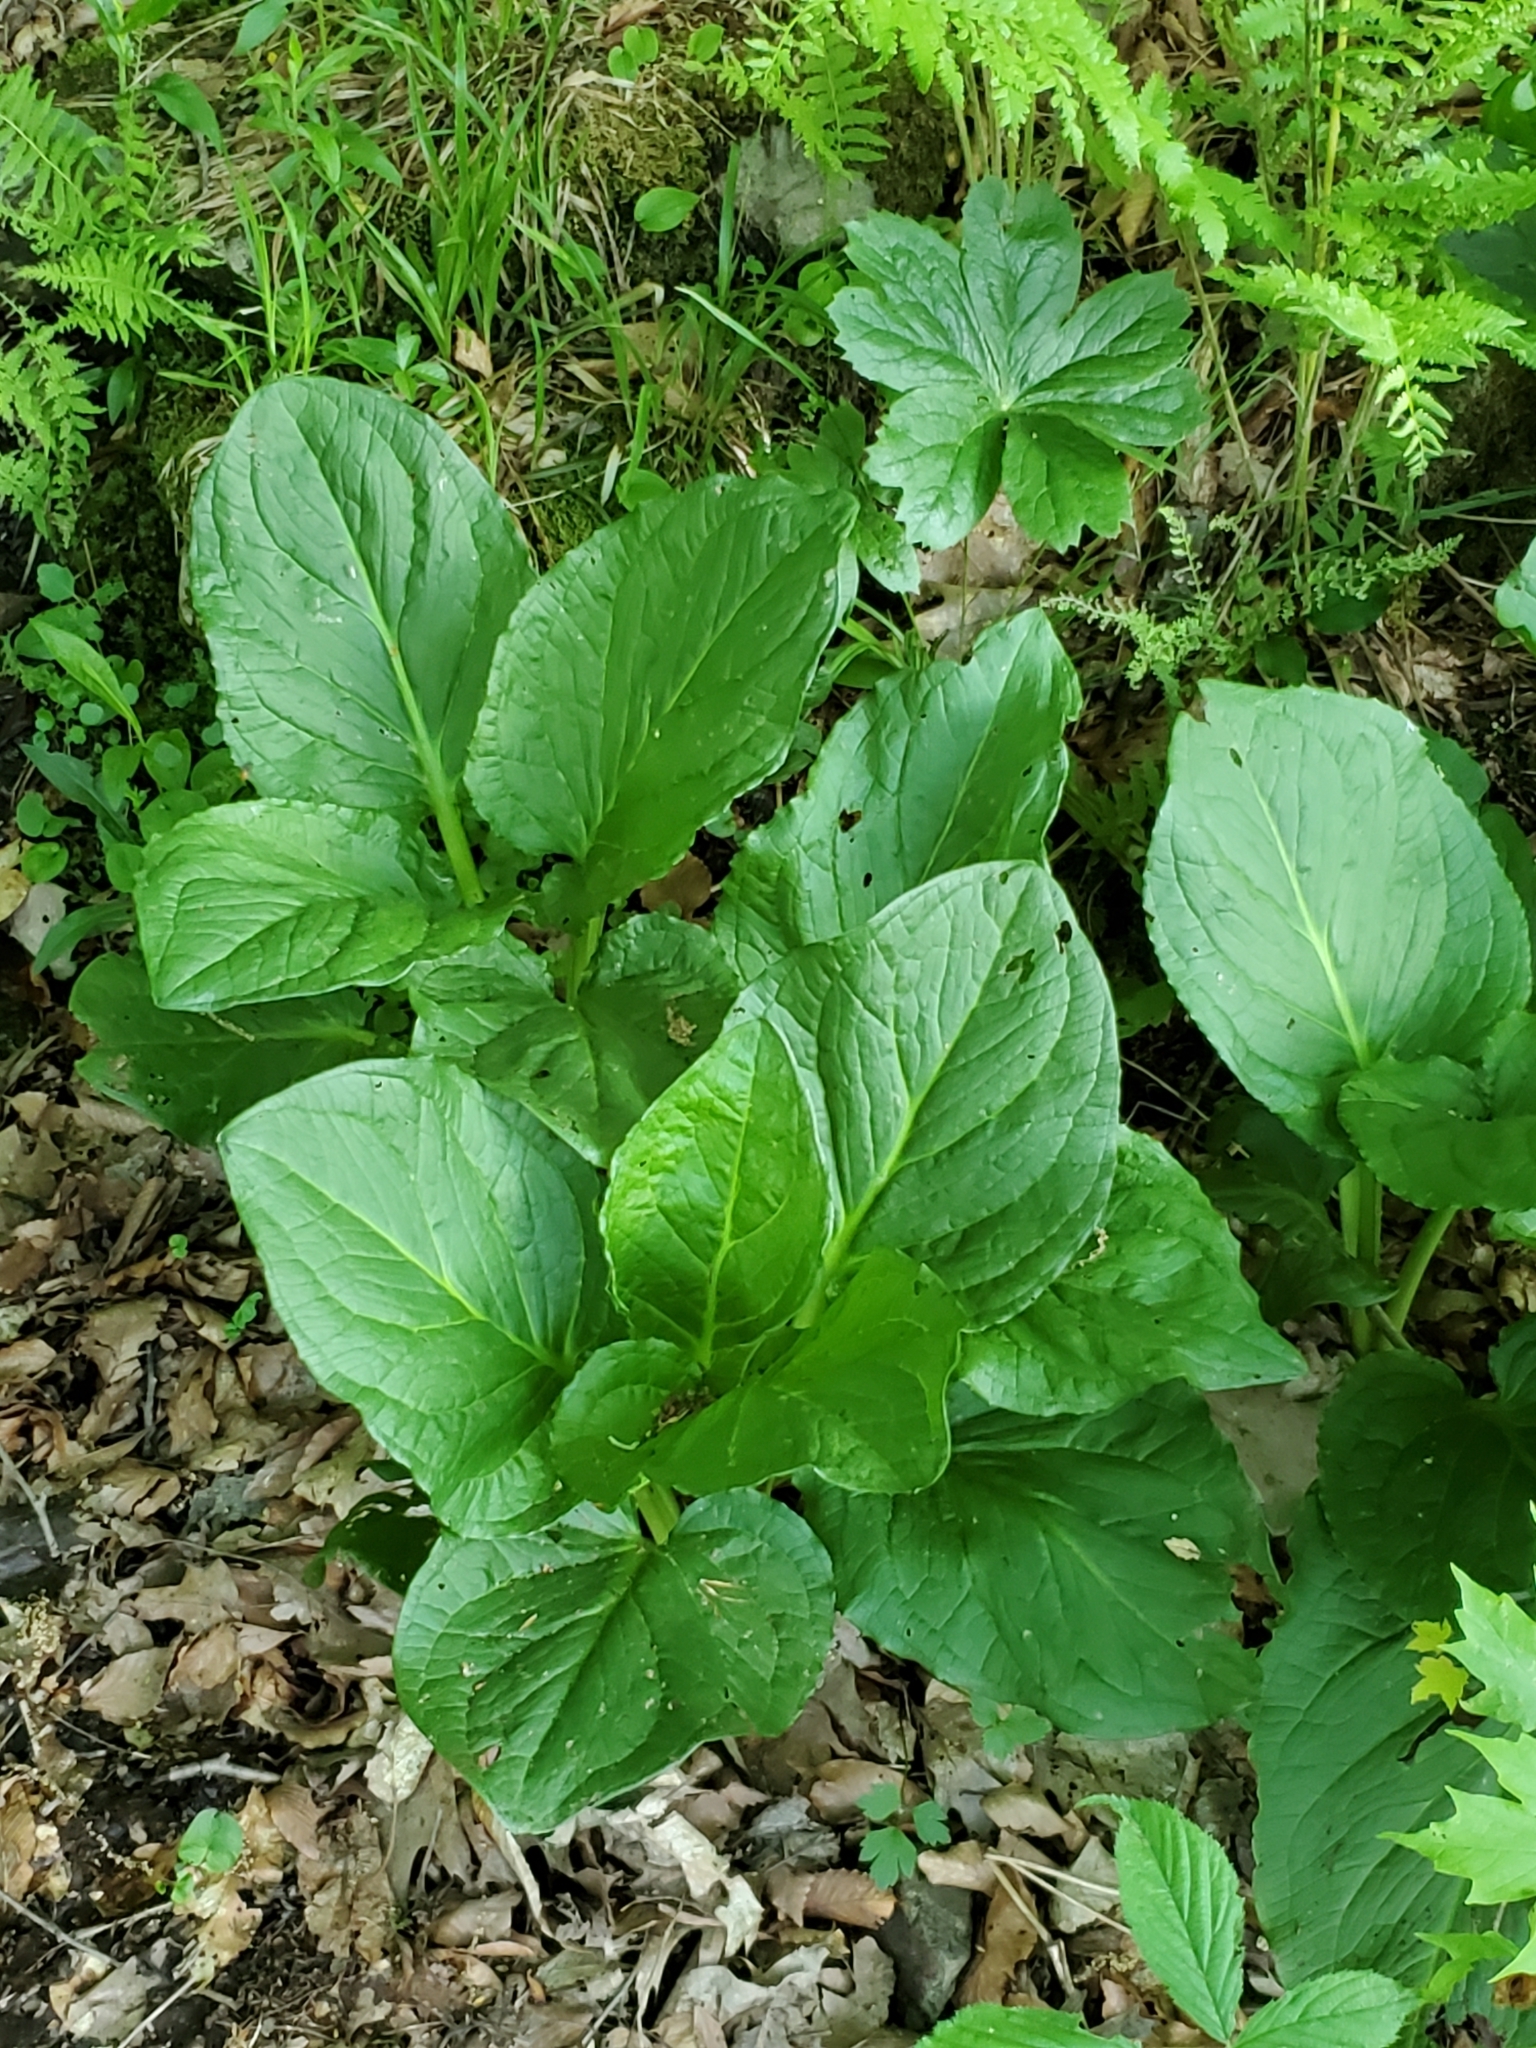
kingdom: Plantae
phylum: Tracheophyta
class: Liliopsida
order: Alismatales
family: Araceae
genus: Symplocarpus
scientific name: Symplocarpus foetidus
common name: Eastern skunk cabbage
